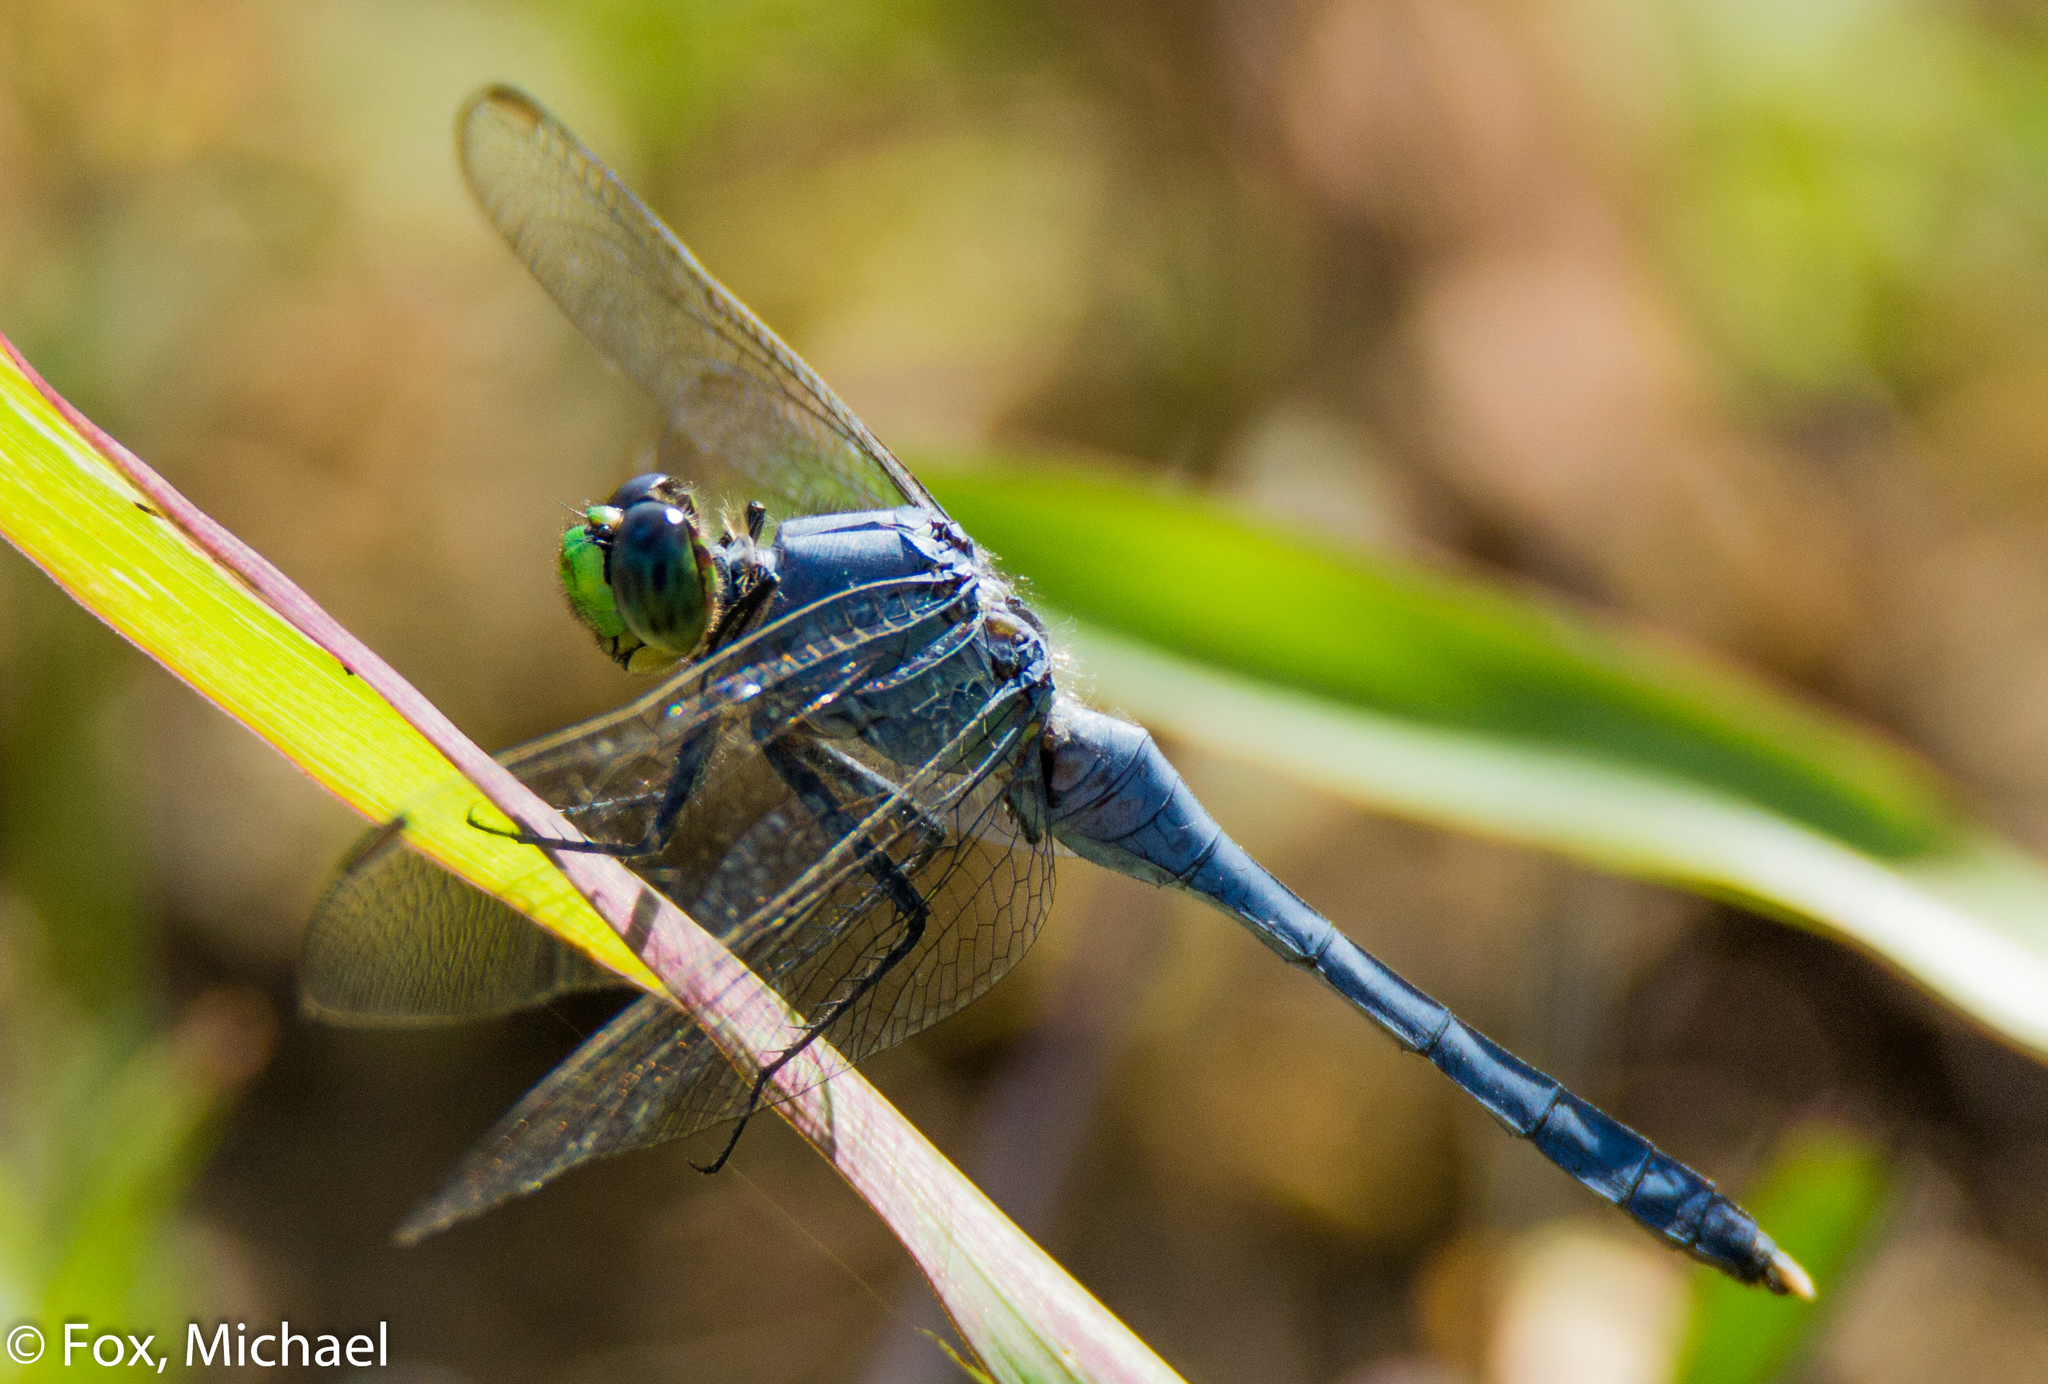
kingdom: Animalia
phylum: Arthropoda
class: Insecta
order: Odonata
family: Libellulidae
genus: Erythemis
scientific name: Erythemis simplicicollis
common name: Eastern pondhawk
